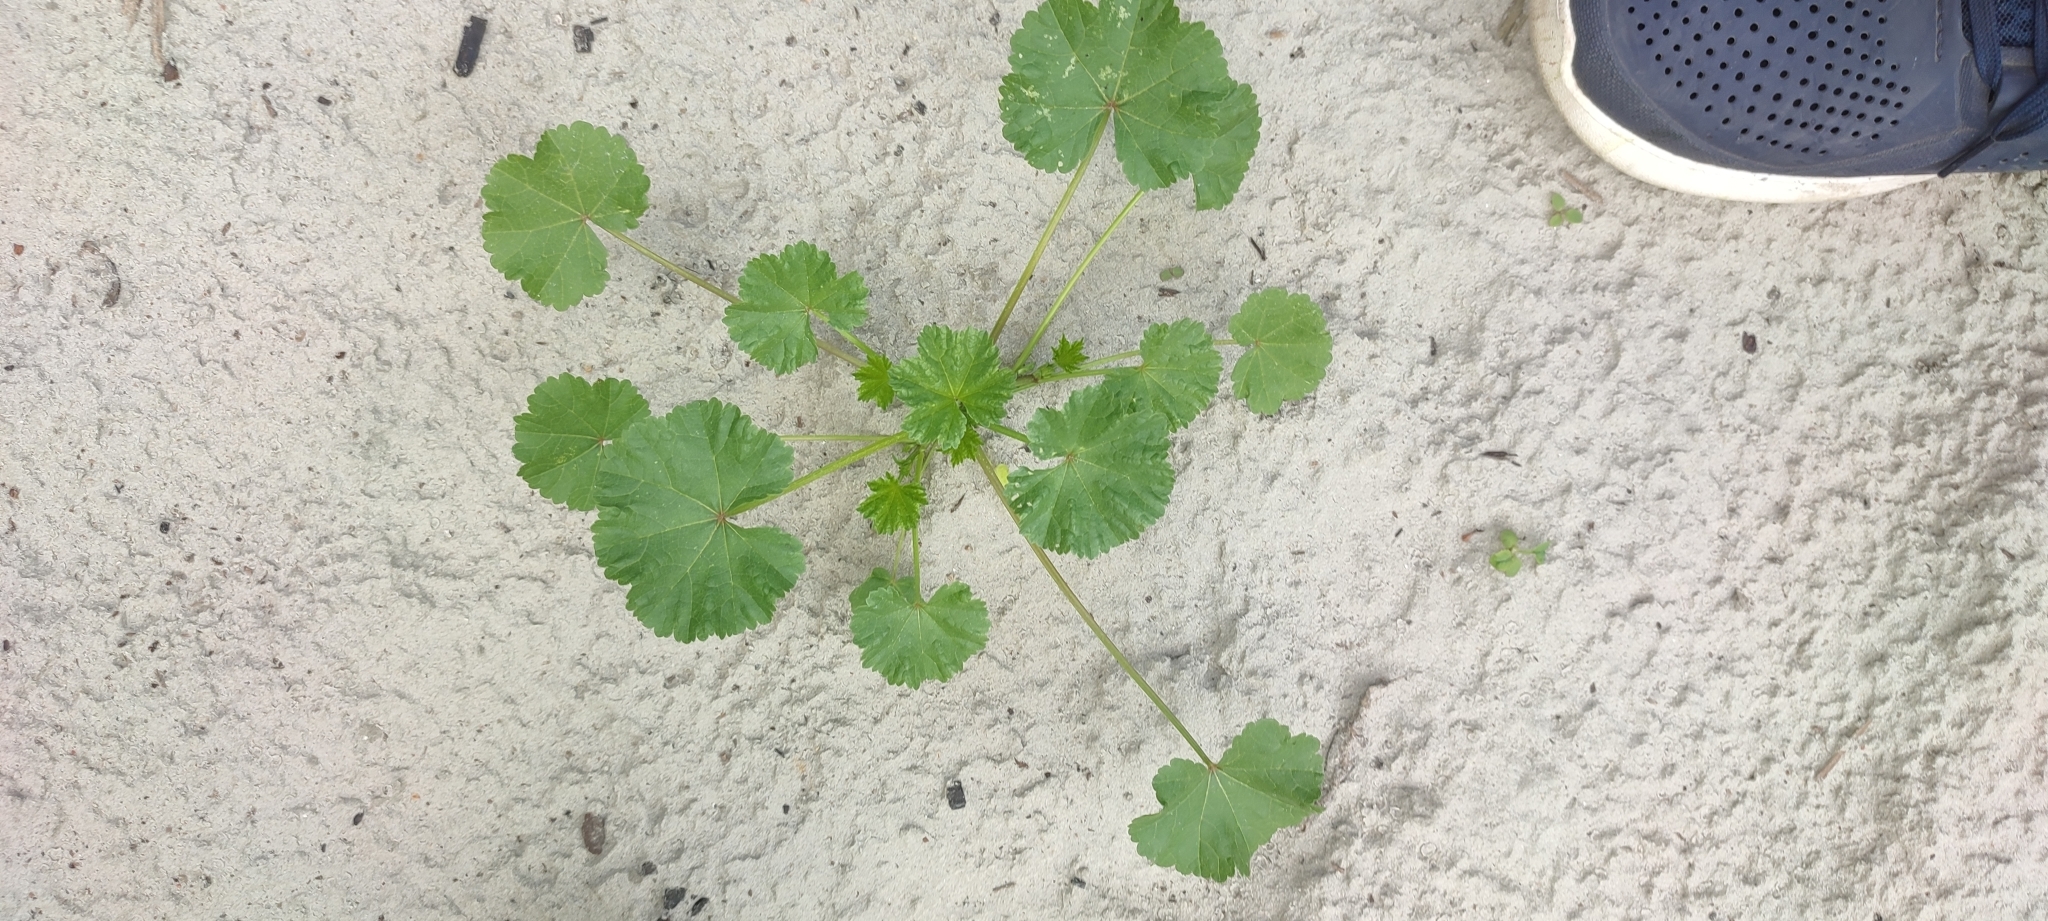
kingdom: Plantae
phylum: Tracheophyta
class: Magnoliopsida
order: Malvales
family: Malvaceae
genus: Malva
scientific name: Malva pusilla
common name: Small mallow
